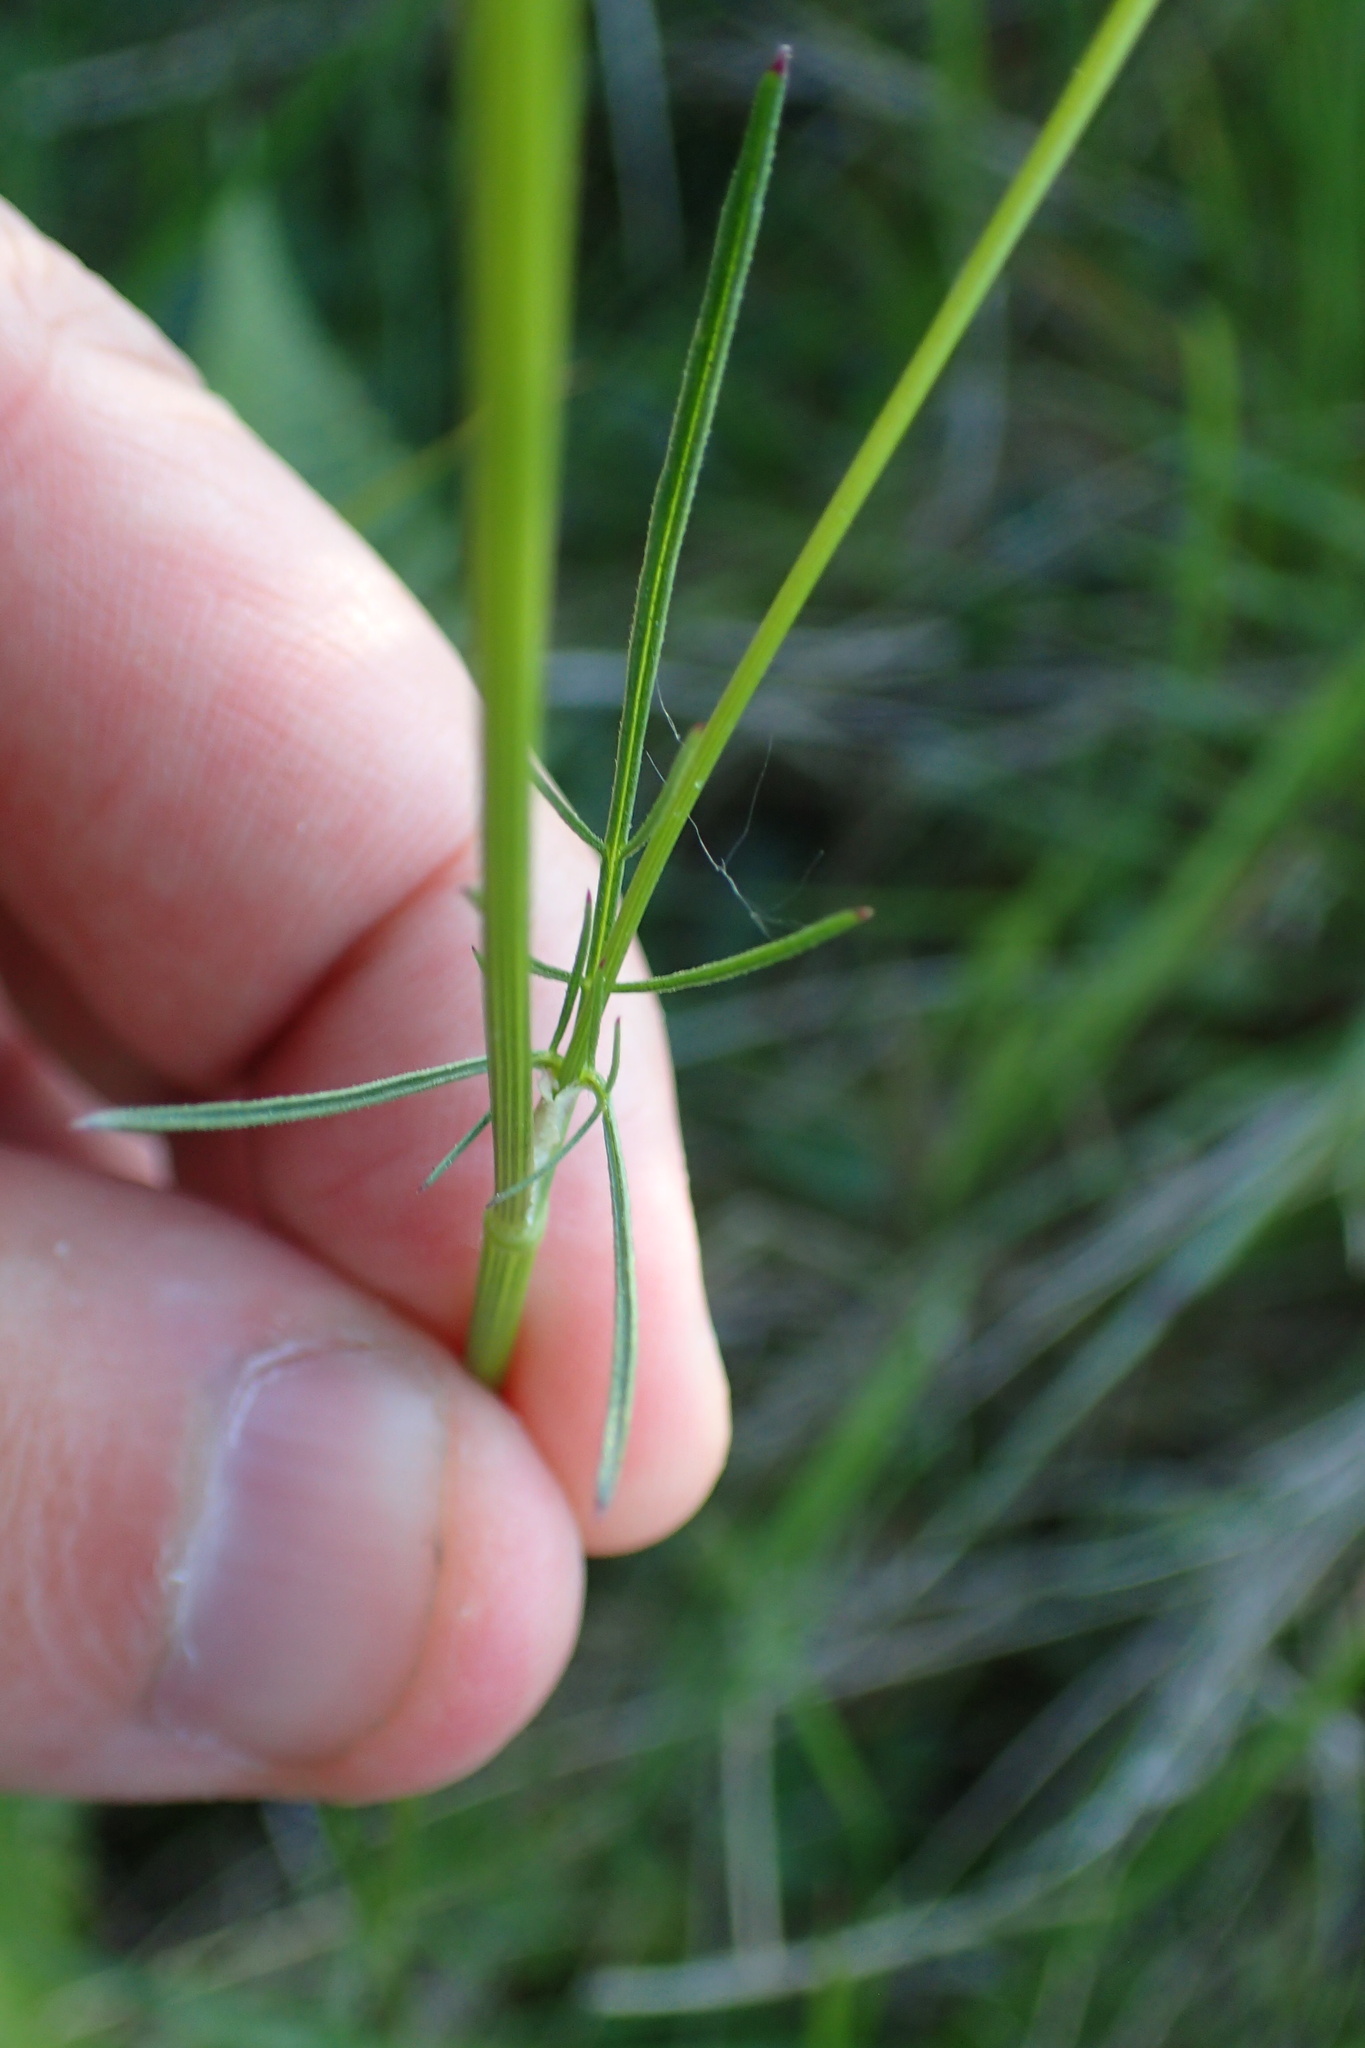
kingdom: Plantae
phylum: Tracheophyta
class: Magnoliopsida
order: Apiales
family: Apiaceae
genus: Conopodium
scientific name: Conopodium majus
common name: Pignut
